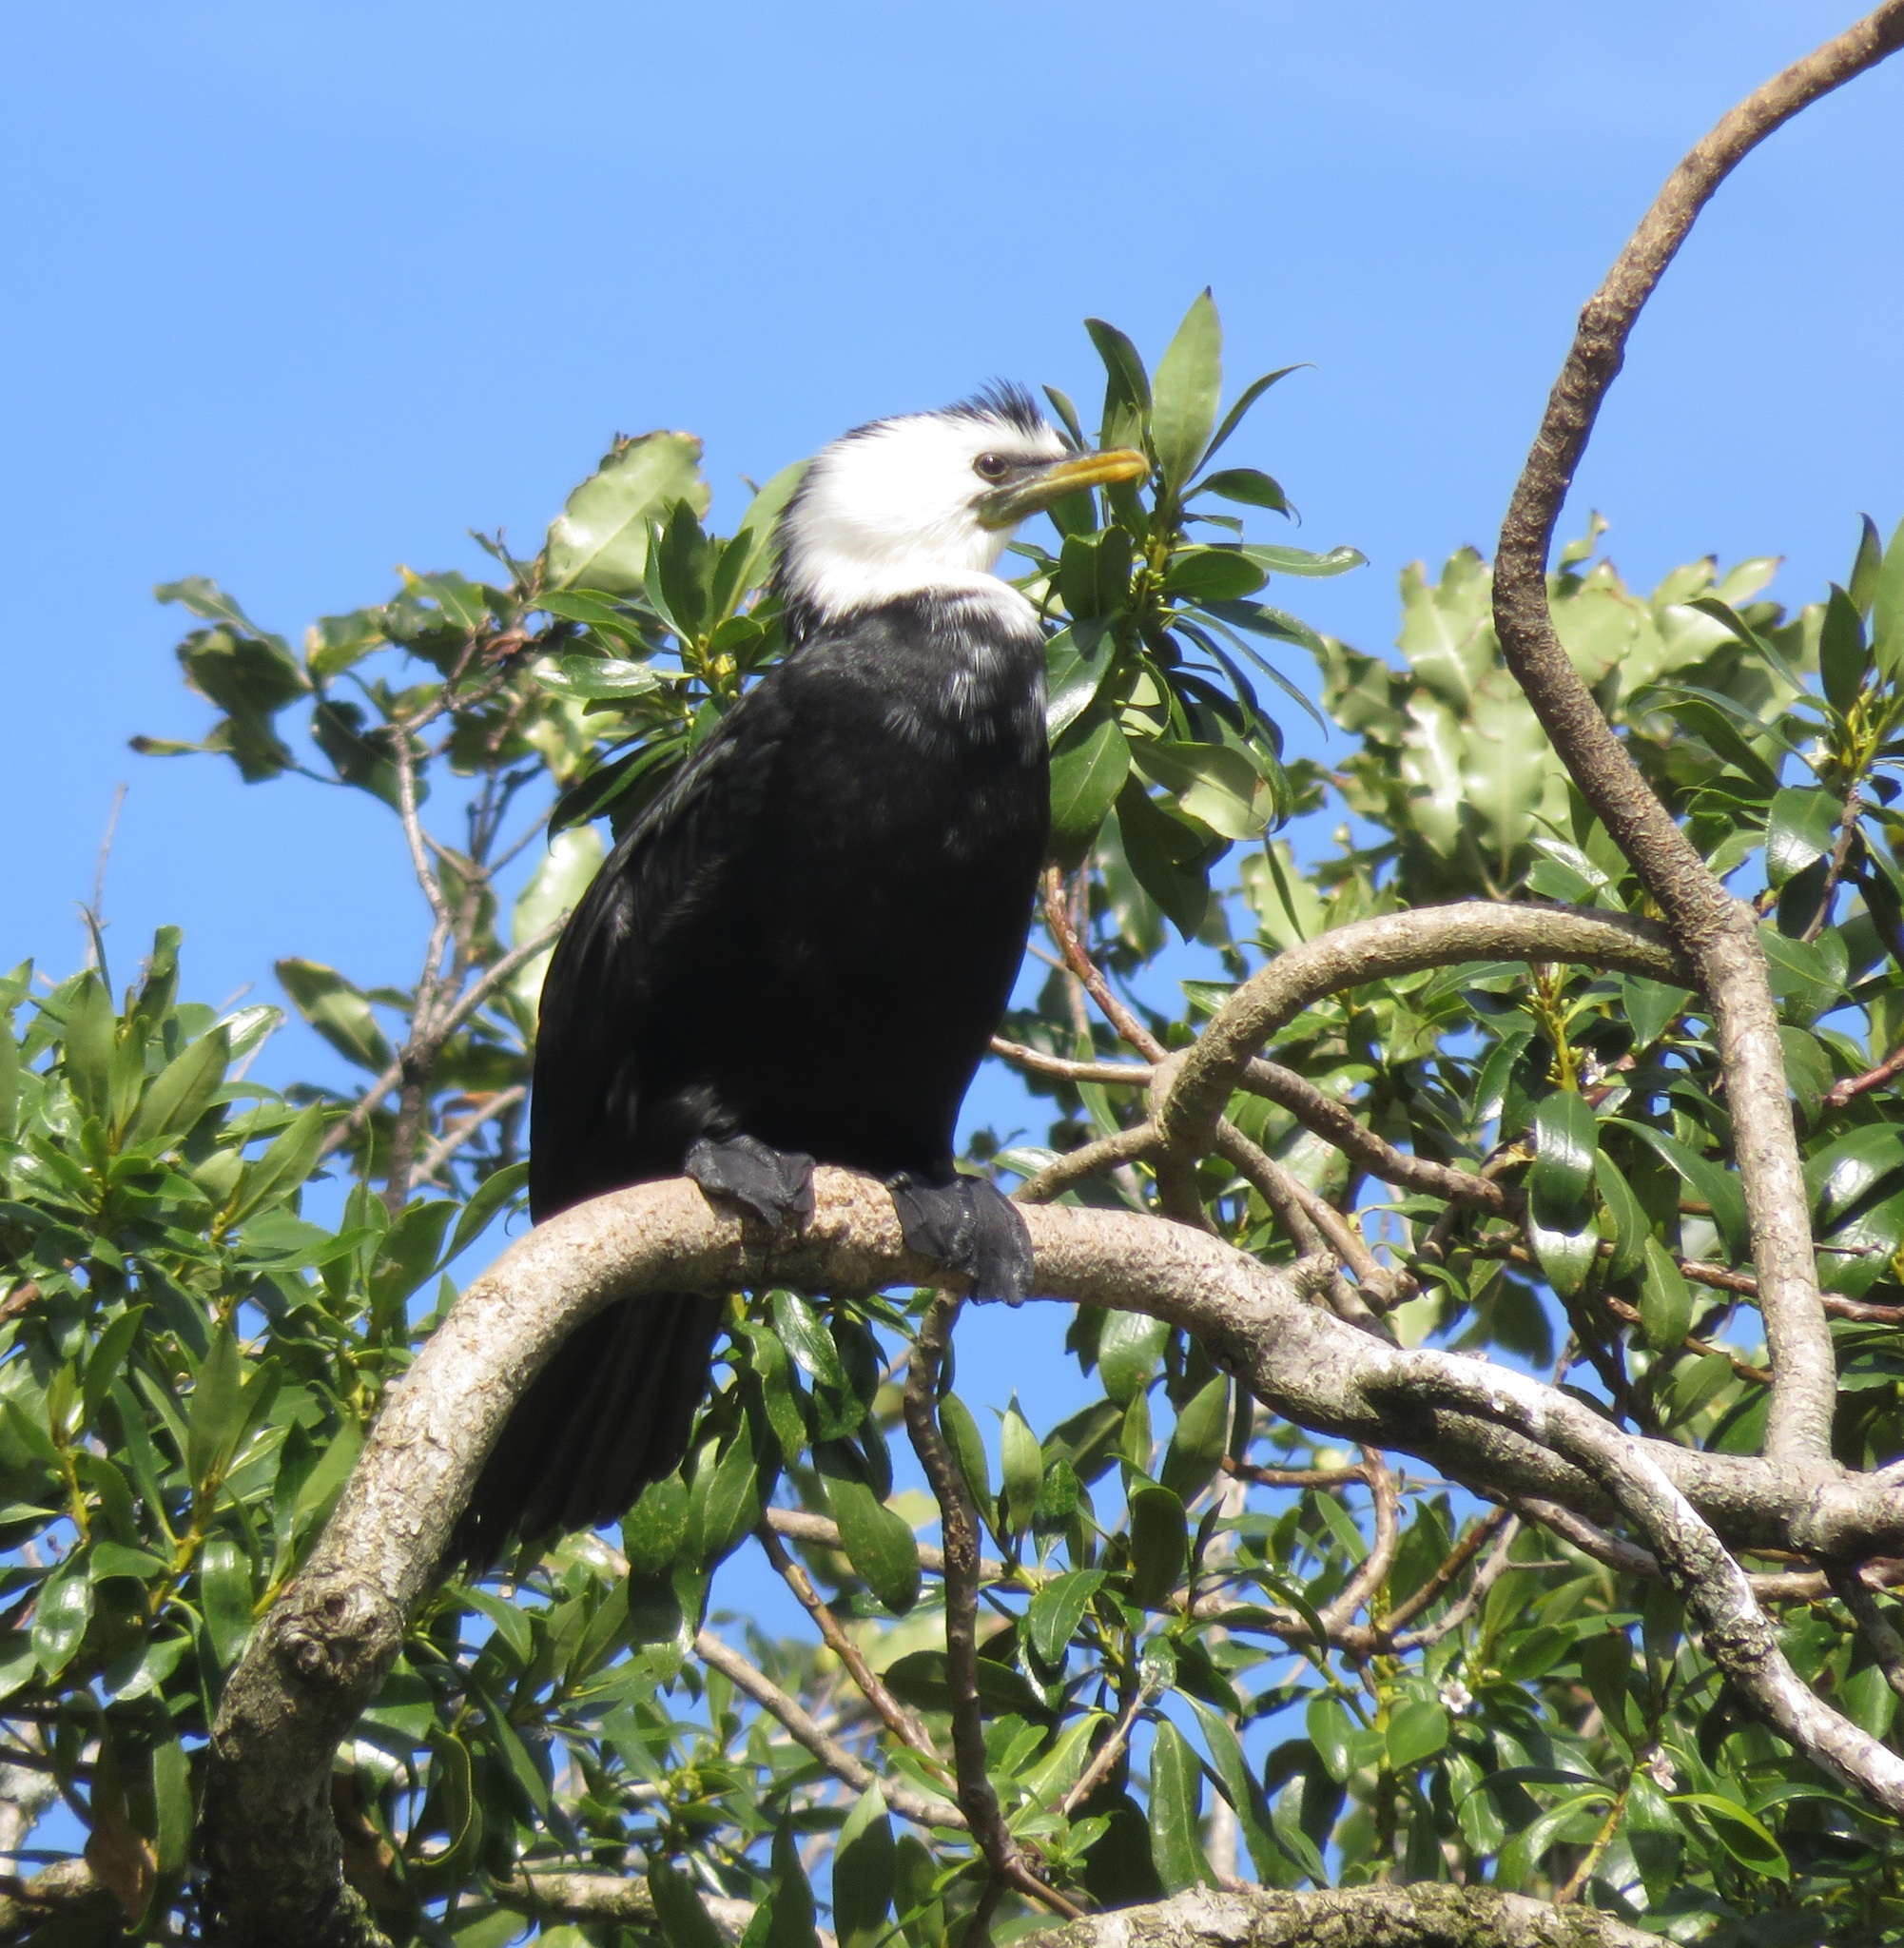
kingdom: Animalia
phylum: Chordata
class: Aves
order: Suliformes
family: Phalacrocoracidae
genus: Microcarbo
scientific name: Microcarbo melanoleucos
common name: Little pied cormorant
